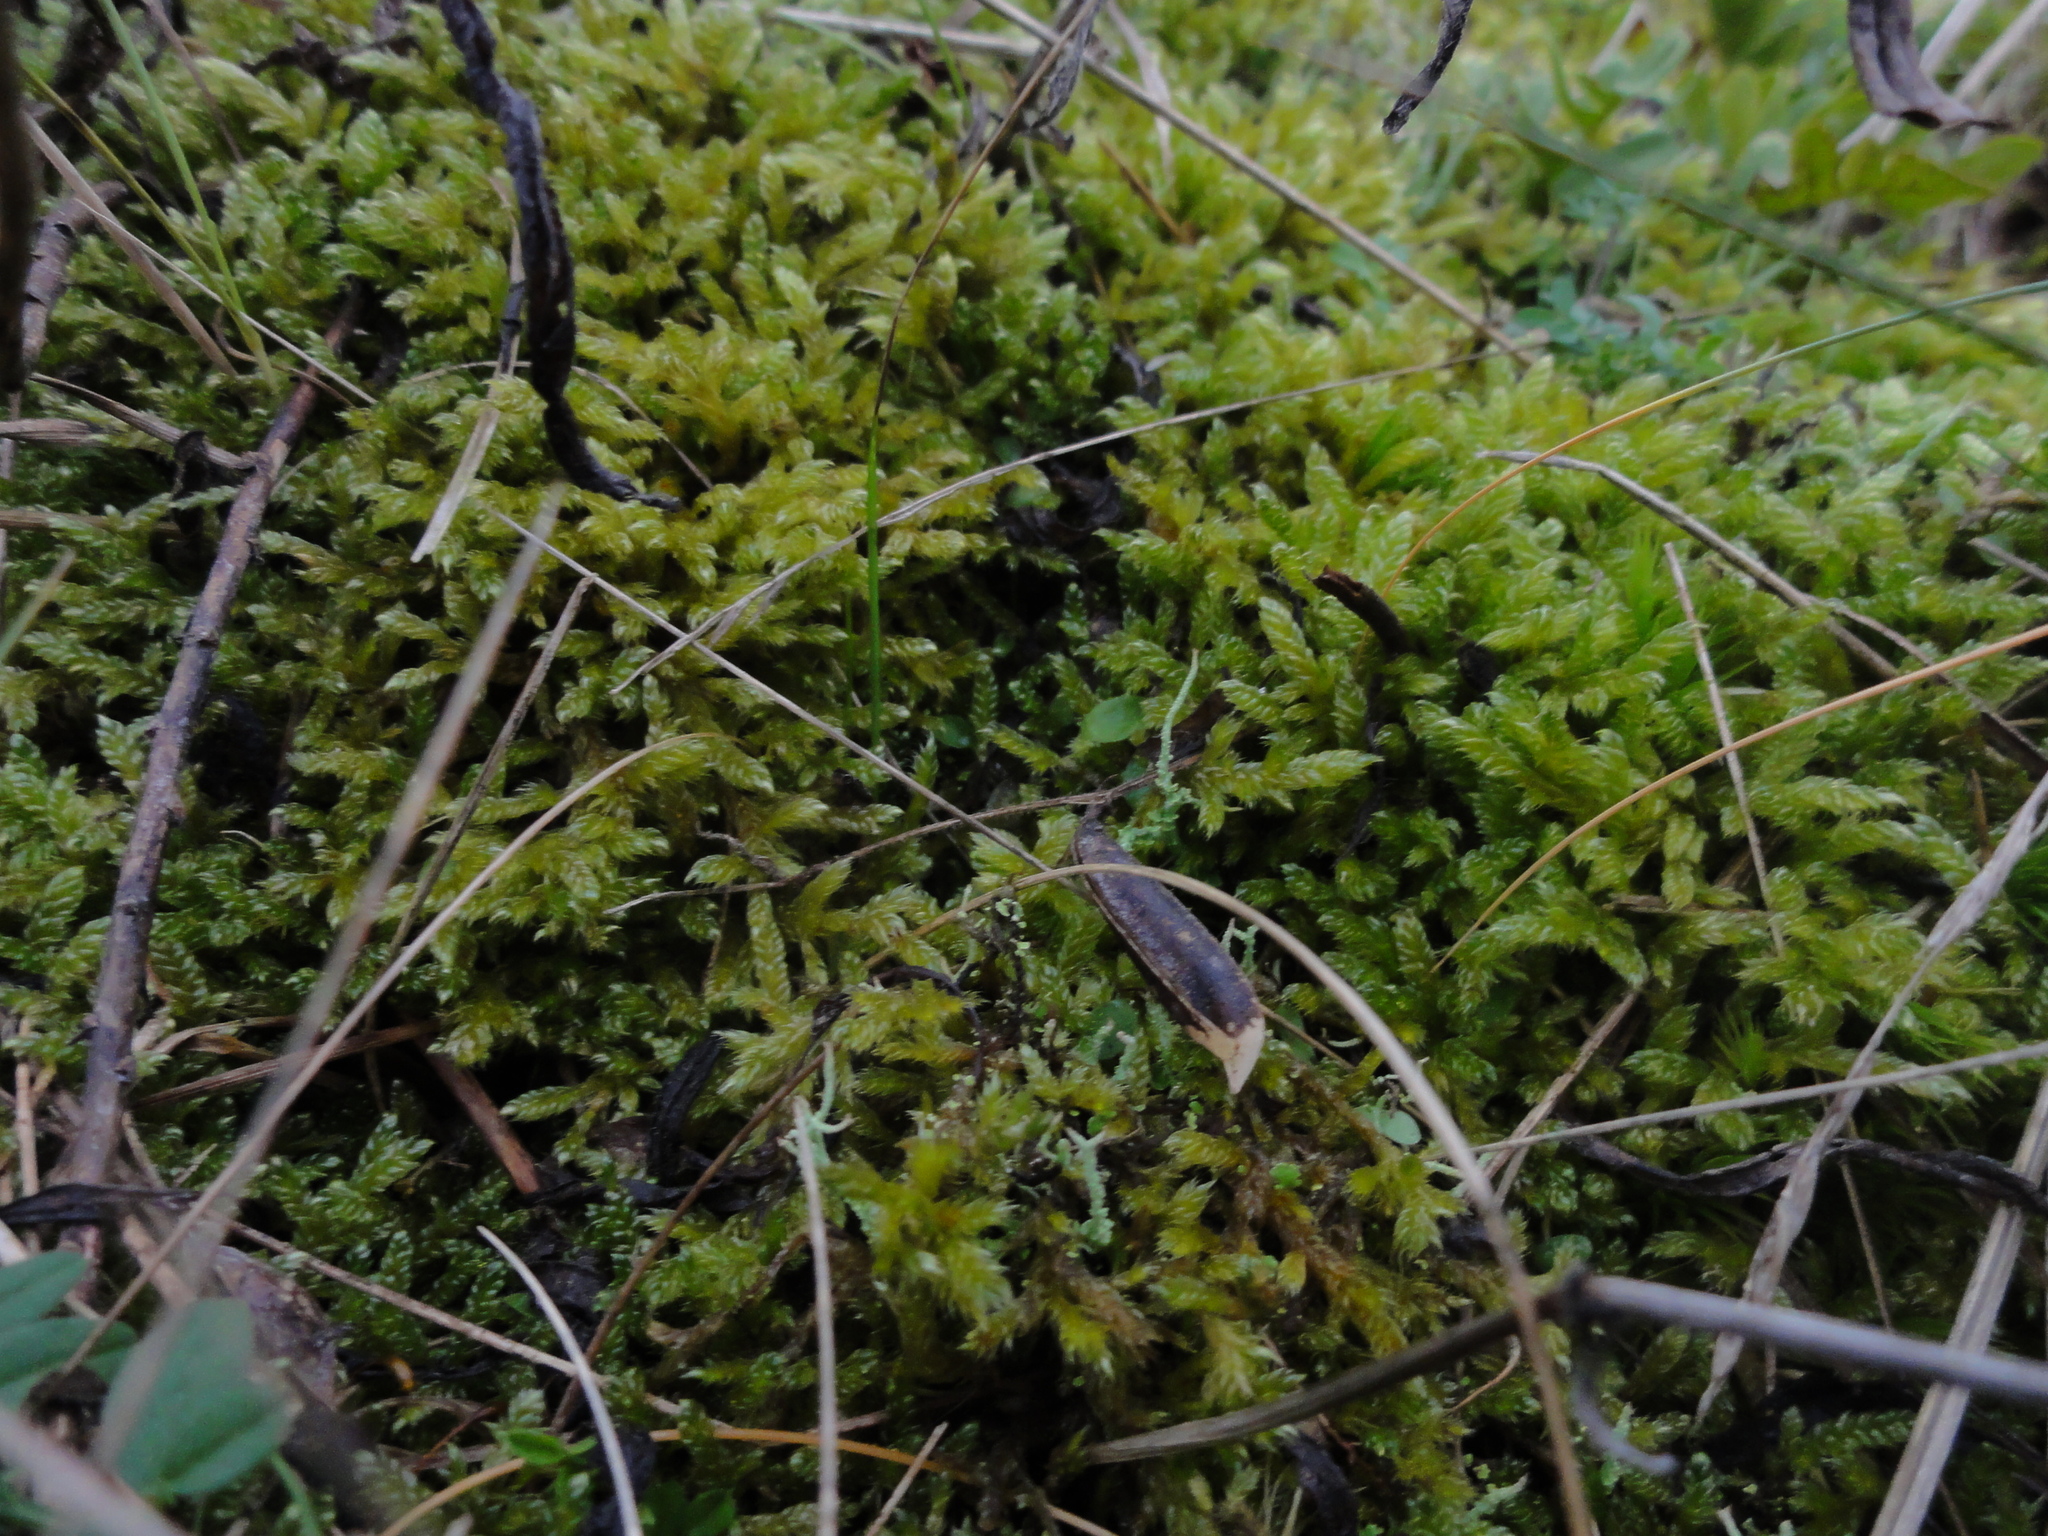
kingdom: Plantae
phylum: Bryophyta
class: Bryopsida
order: Hypnales
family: Hypnaceae
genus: Hypnum
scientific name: Hypnum cupressiforme
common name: Cypress-leaved plait-moss
